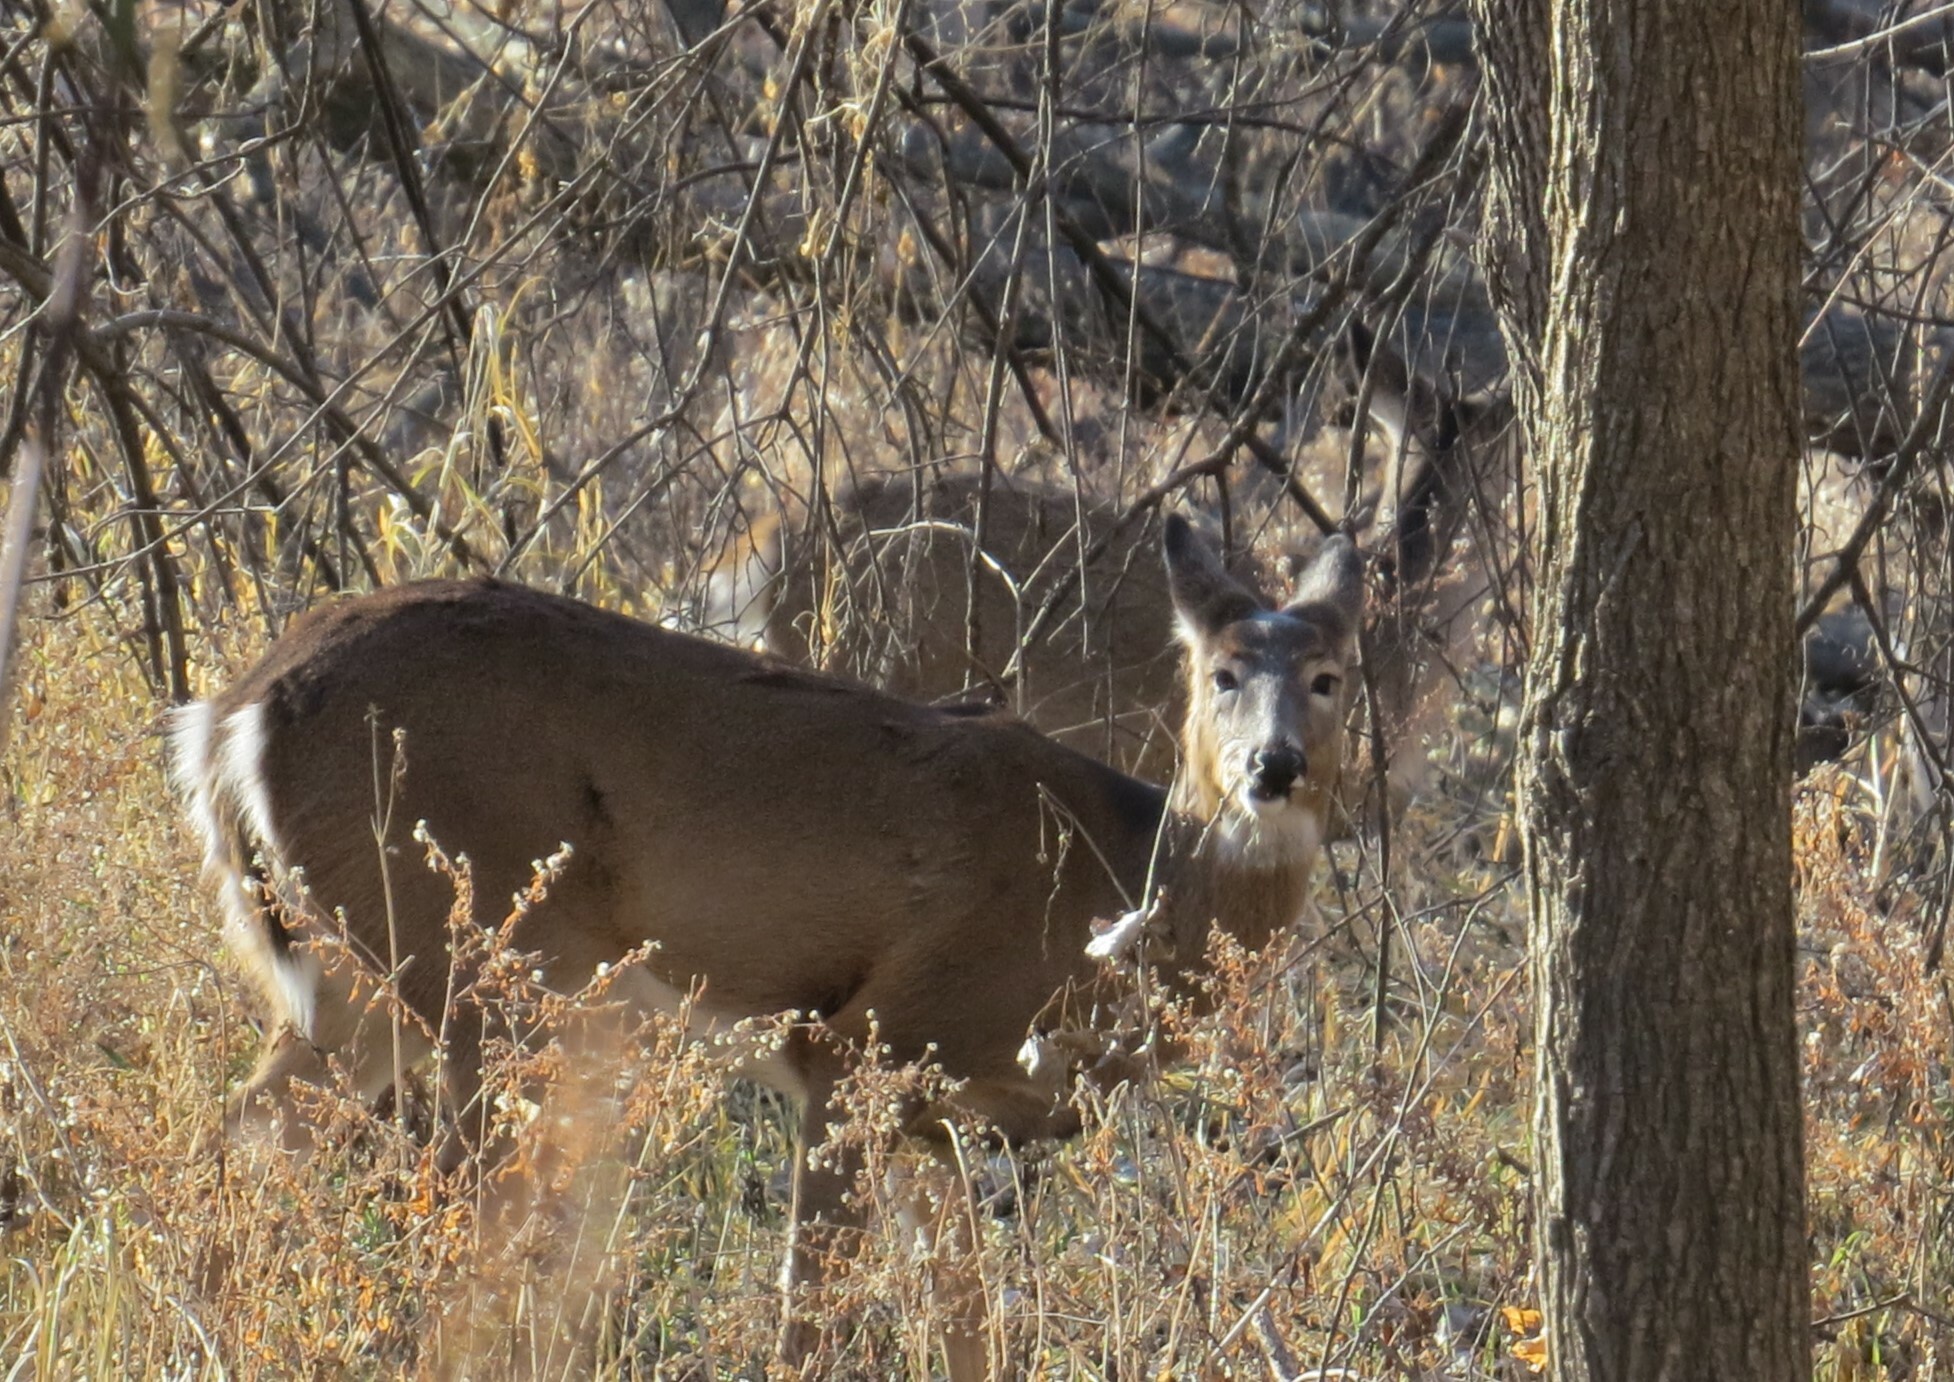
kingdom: Animalia
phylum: Chordata
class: Mammalia
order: Artiodactyla
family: Cervidae
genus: Odocoileus
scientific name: Odocoileus virginianus
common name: White-tailed deer
